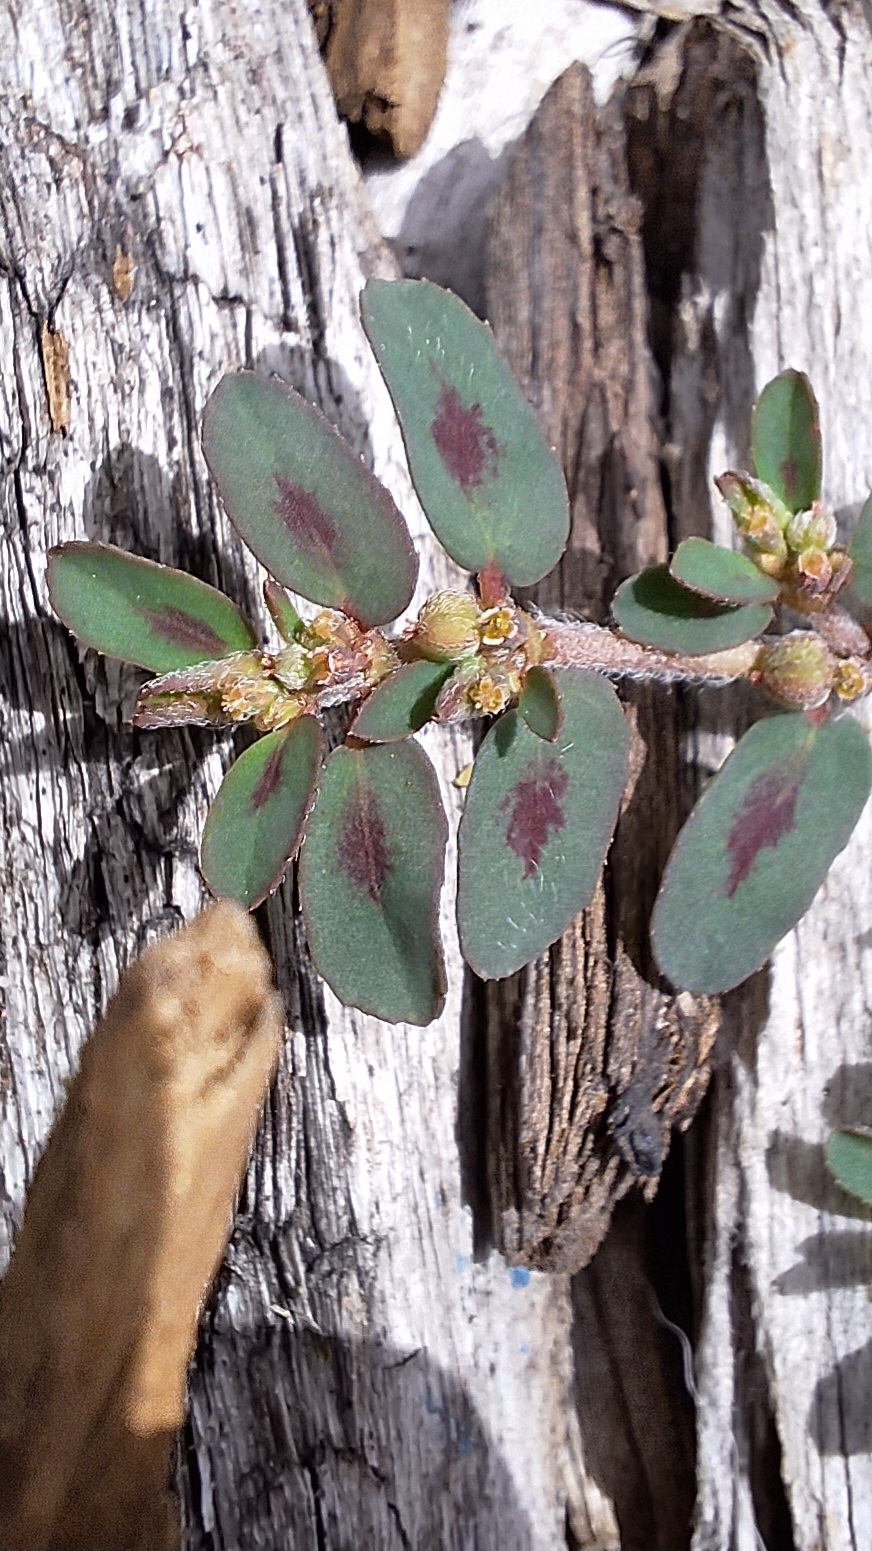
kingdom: Plantae
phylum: Tracheophyta
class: Magnoliopsida
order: Malpighiales
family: Euphorbiaceae
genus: Euphorbia
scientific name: Euphorbia maculata
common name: Spotted spurge
